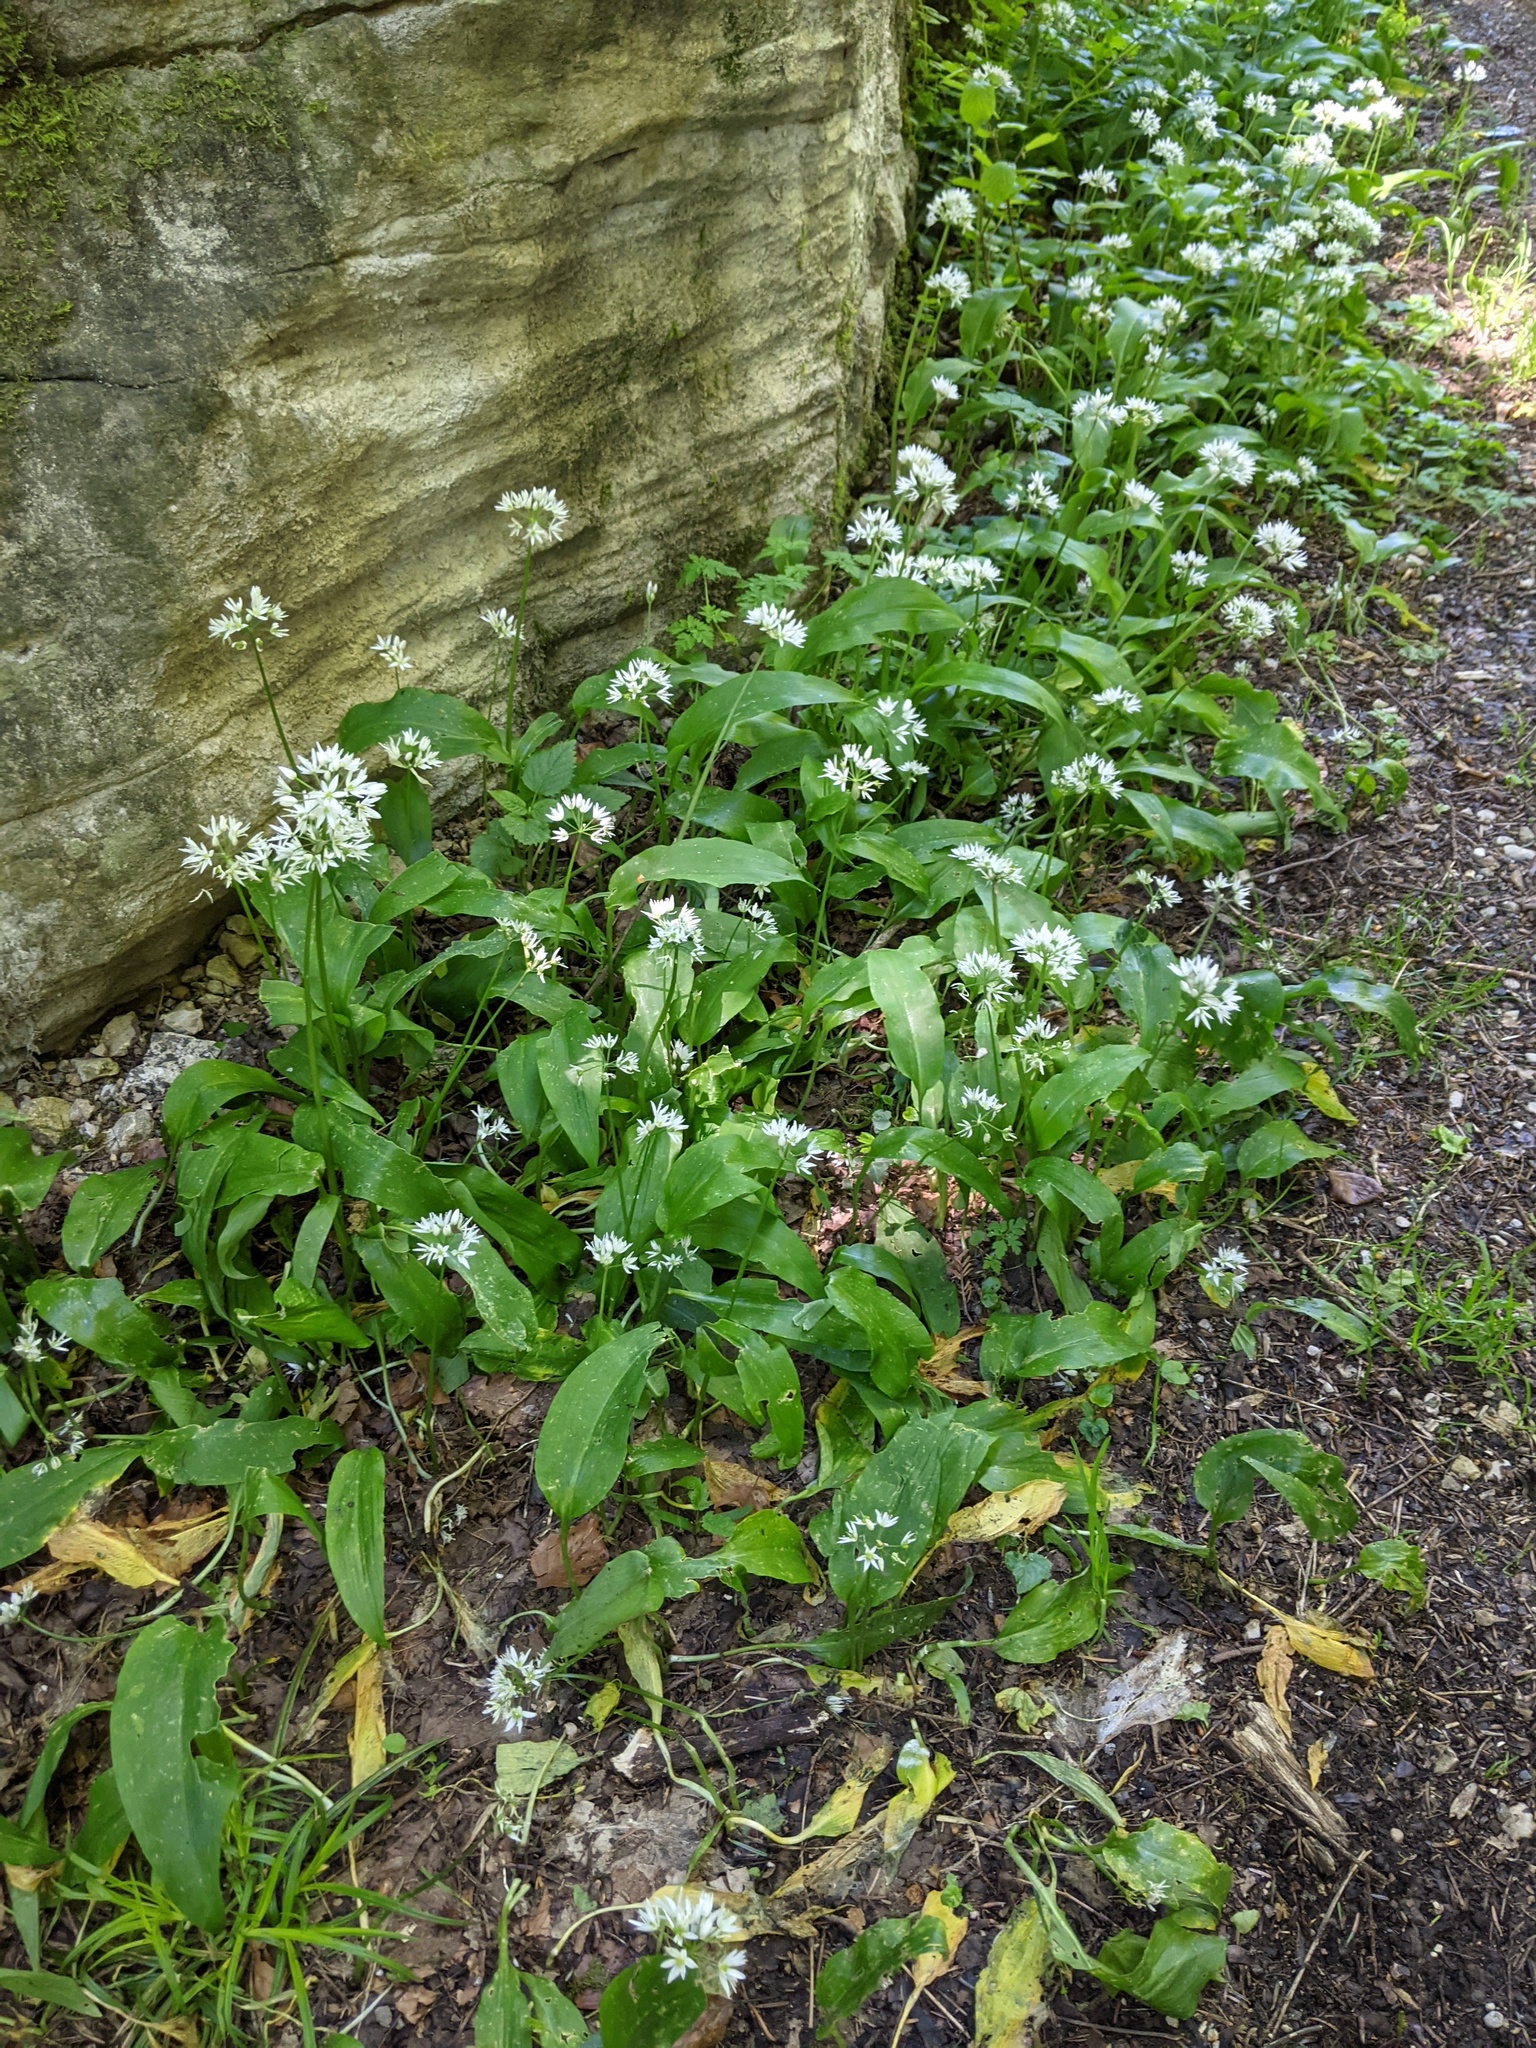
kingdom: Plantae
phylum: Tracheophyta
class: Liliopsida
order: Asparagales
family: Amaryllidaceae
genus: Allium
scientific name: Allium ursinum
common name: Ramsons
